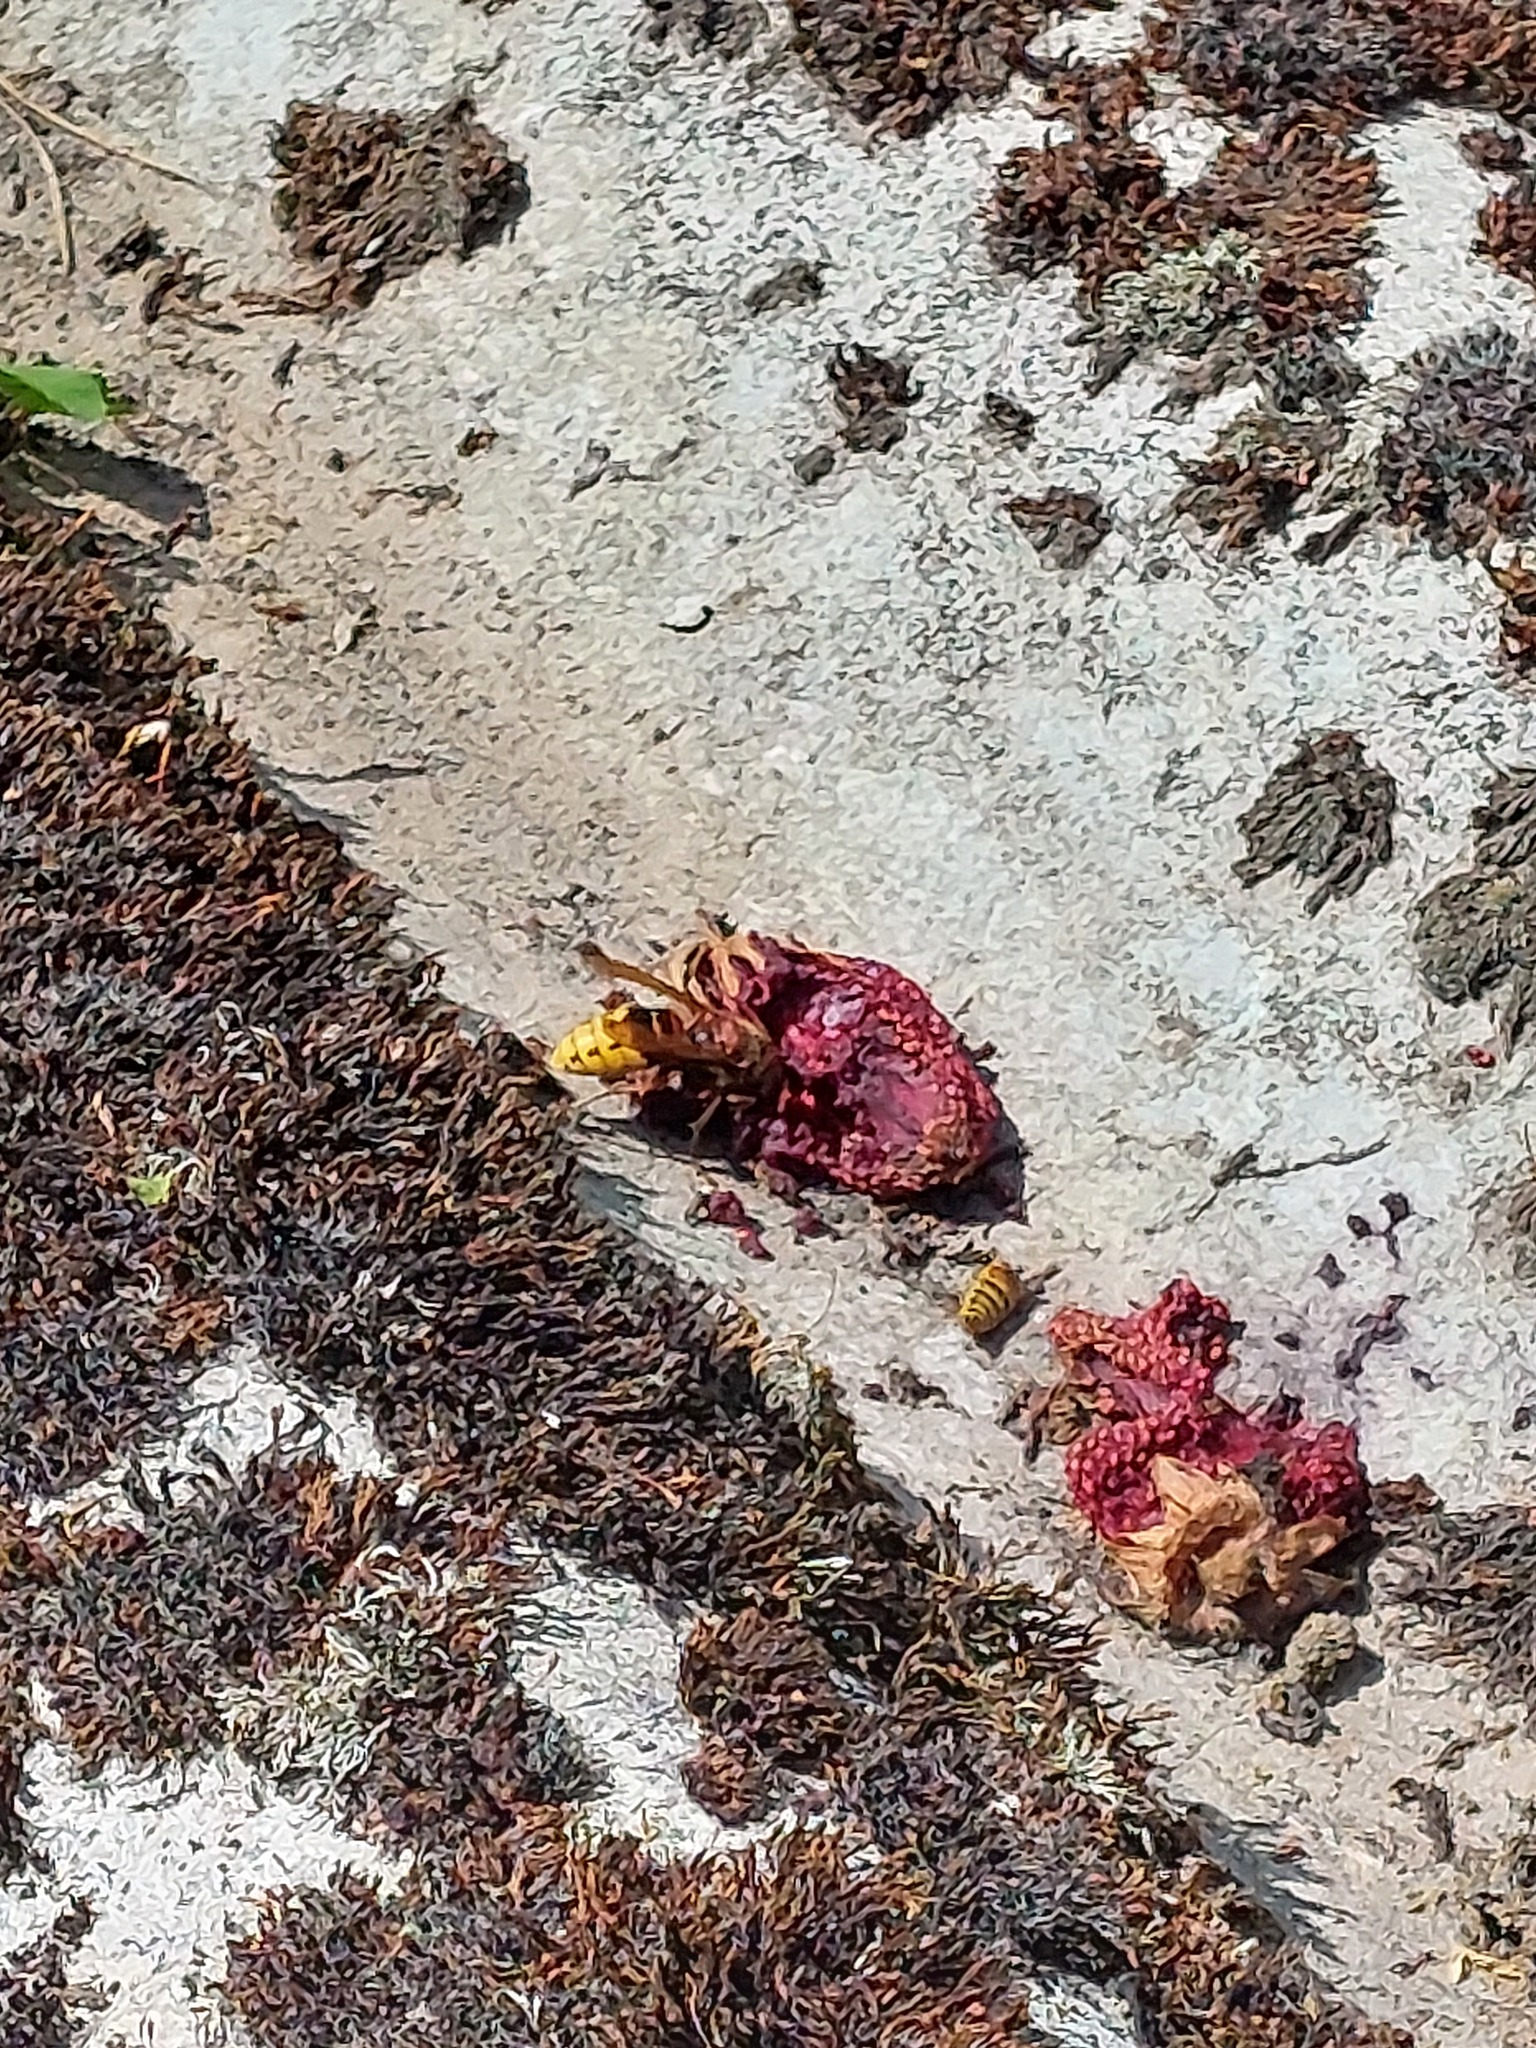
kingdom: Animalia
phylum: Arthropoda
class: Insecta
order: Hymenoptera
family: Vespidae
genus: Vespa
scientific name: Vespa crabro
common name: Hornet
